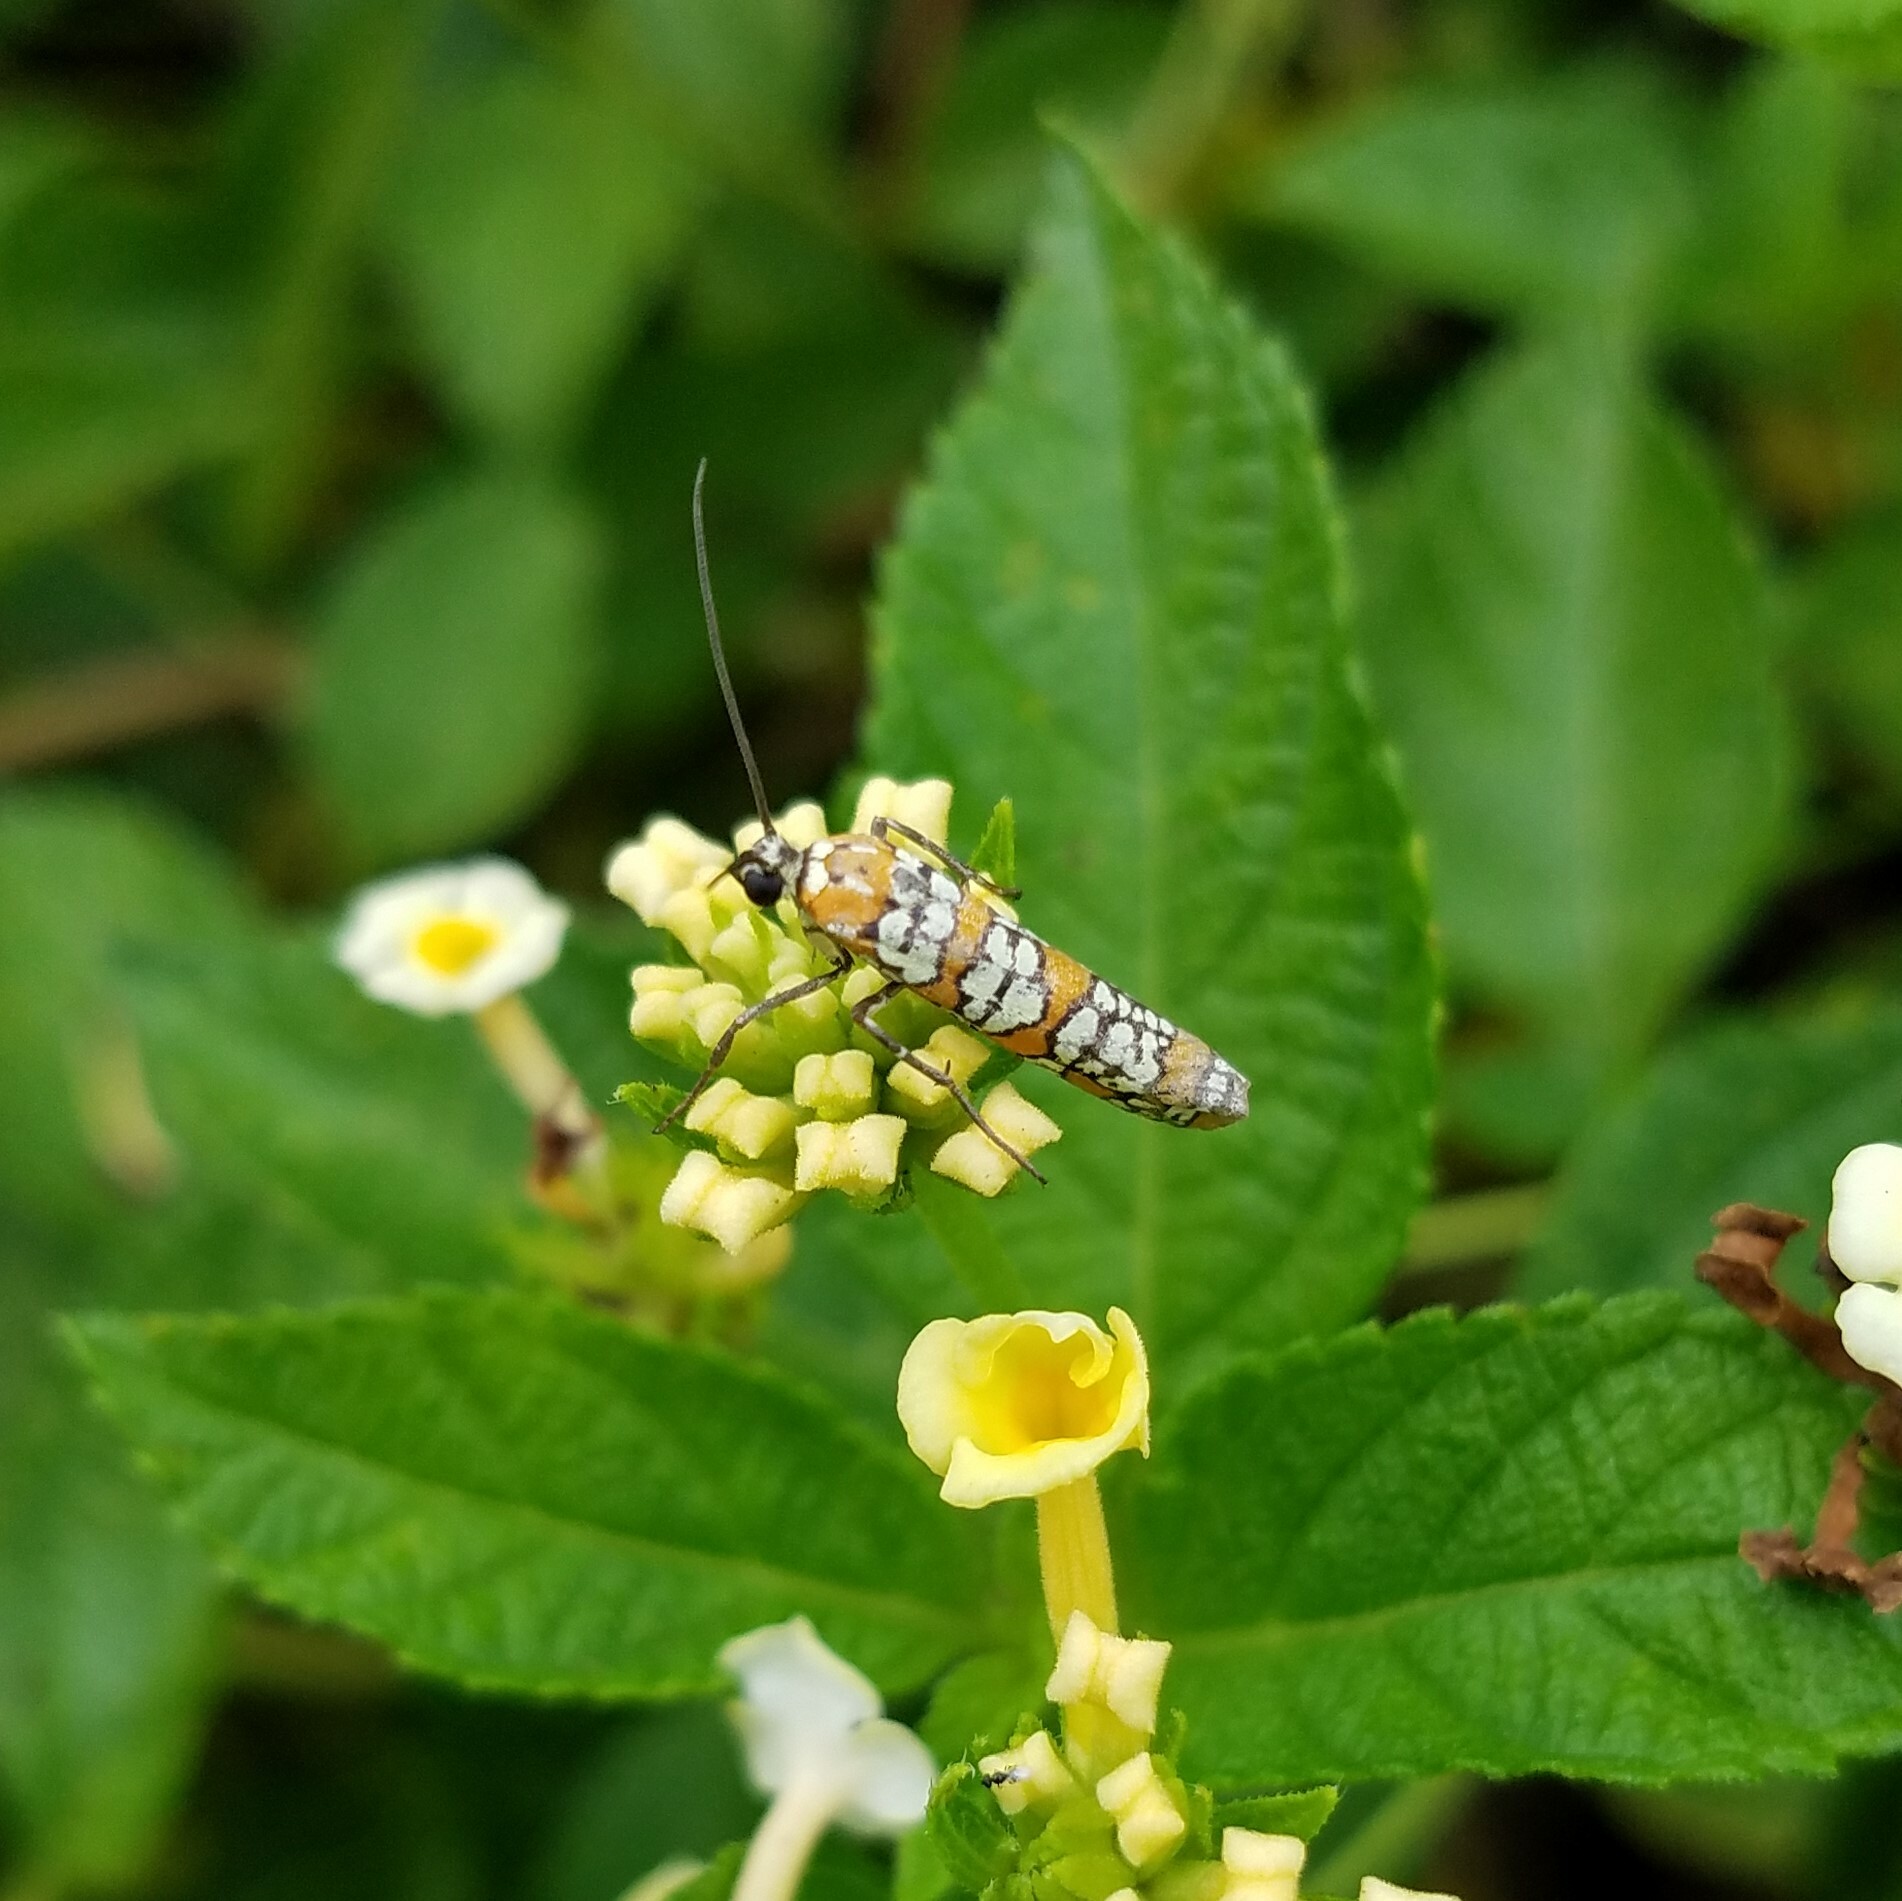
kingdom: Animalia
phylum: Arthropoda
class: Insecta
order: Lepidoptera
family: Attevidae
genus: Atteva
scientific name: Atteva punctella
